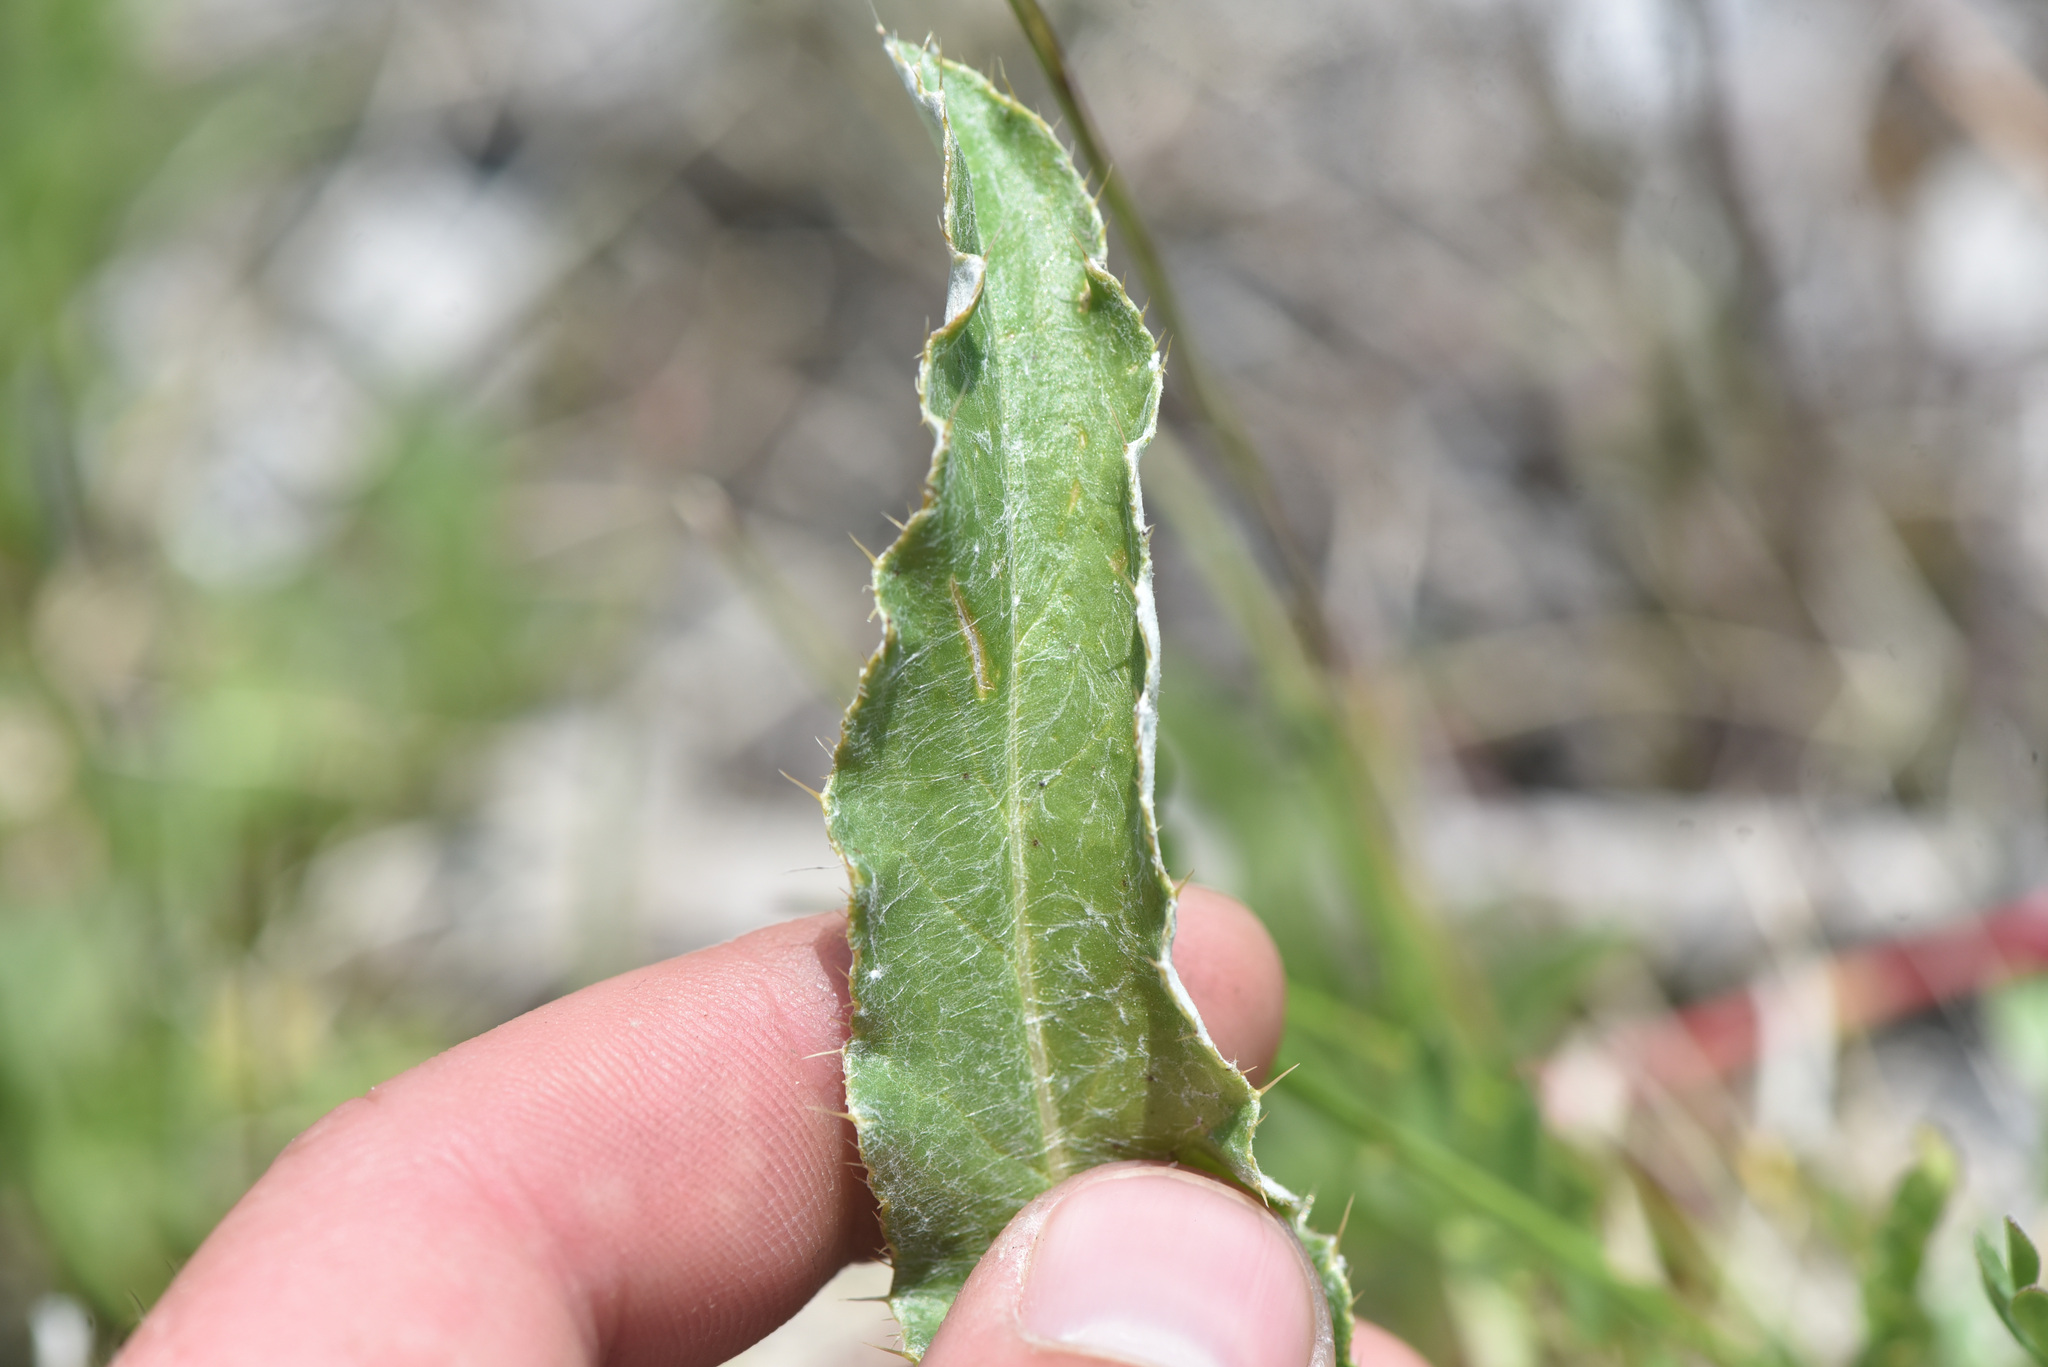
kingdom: Plantae
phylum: Tracheophyta
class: Magnoliopsida
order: Asterales
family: Asteraceae
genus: Cirsium
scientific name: Cirsium hookerianum
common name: Hooker's thistle
